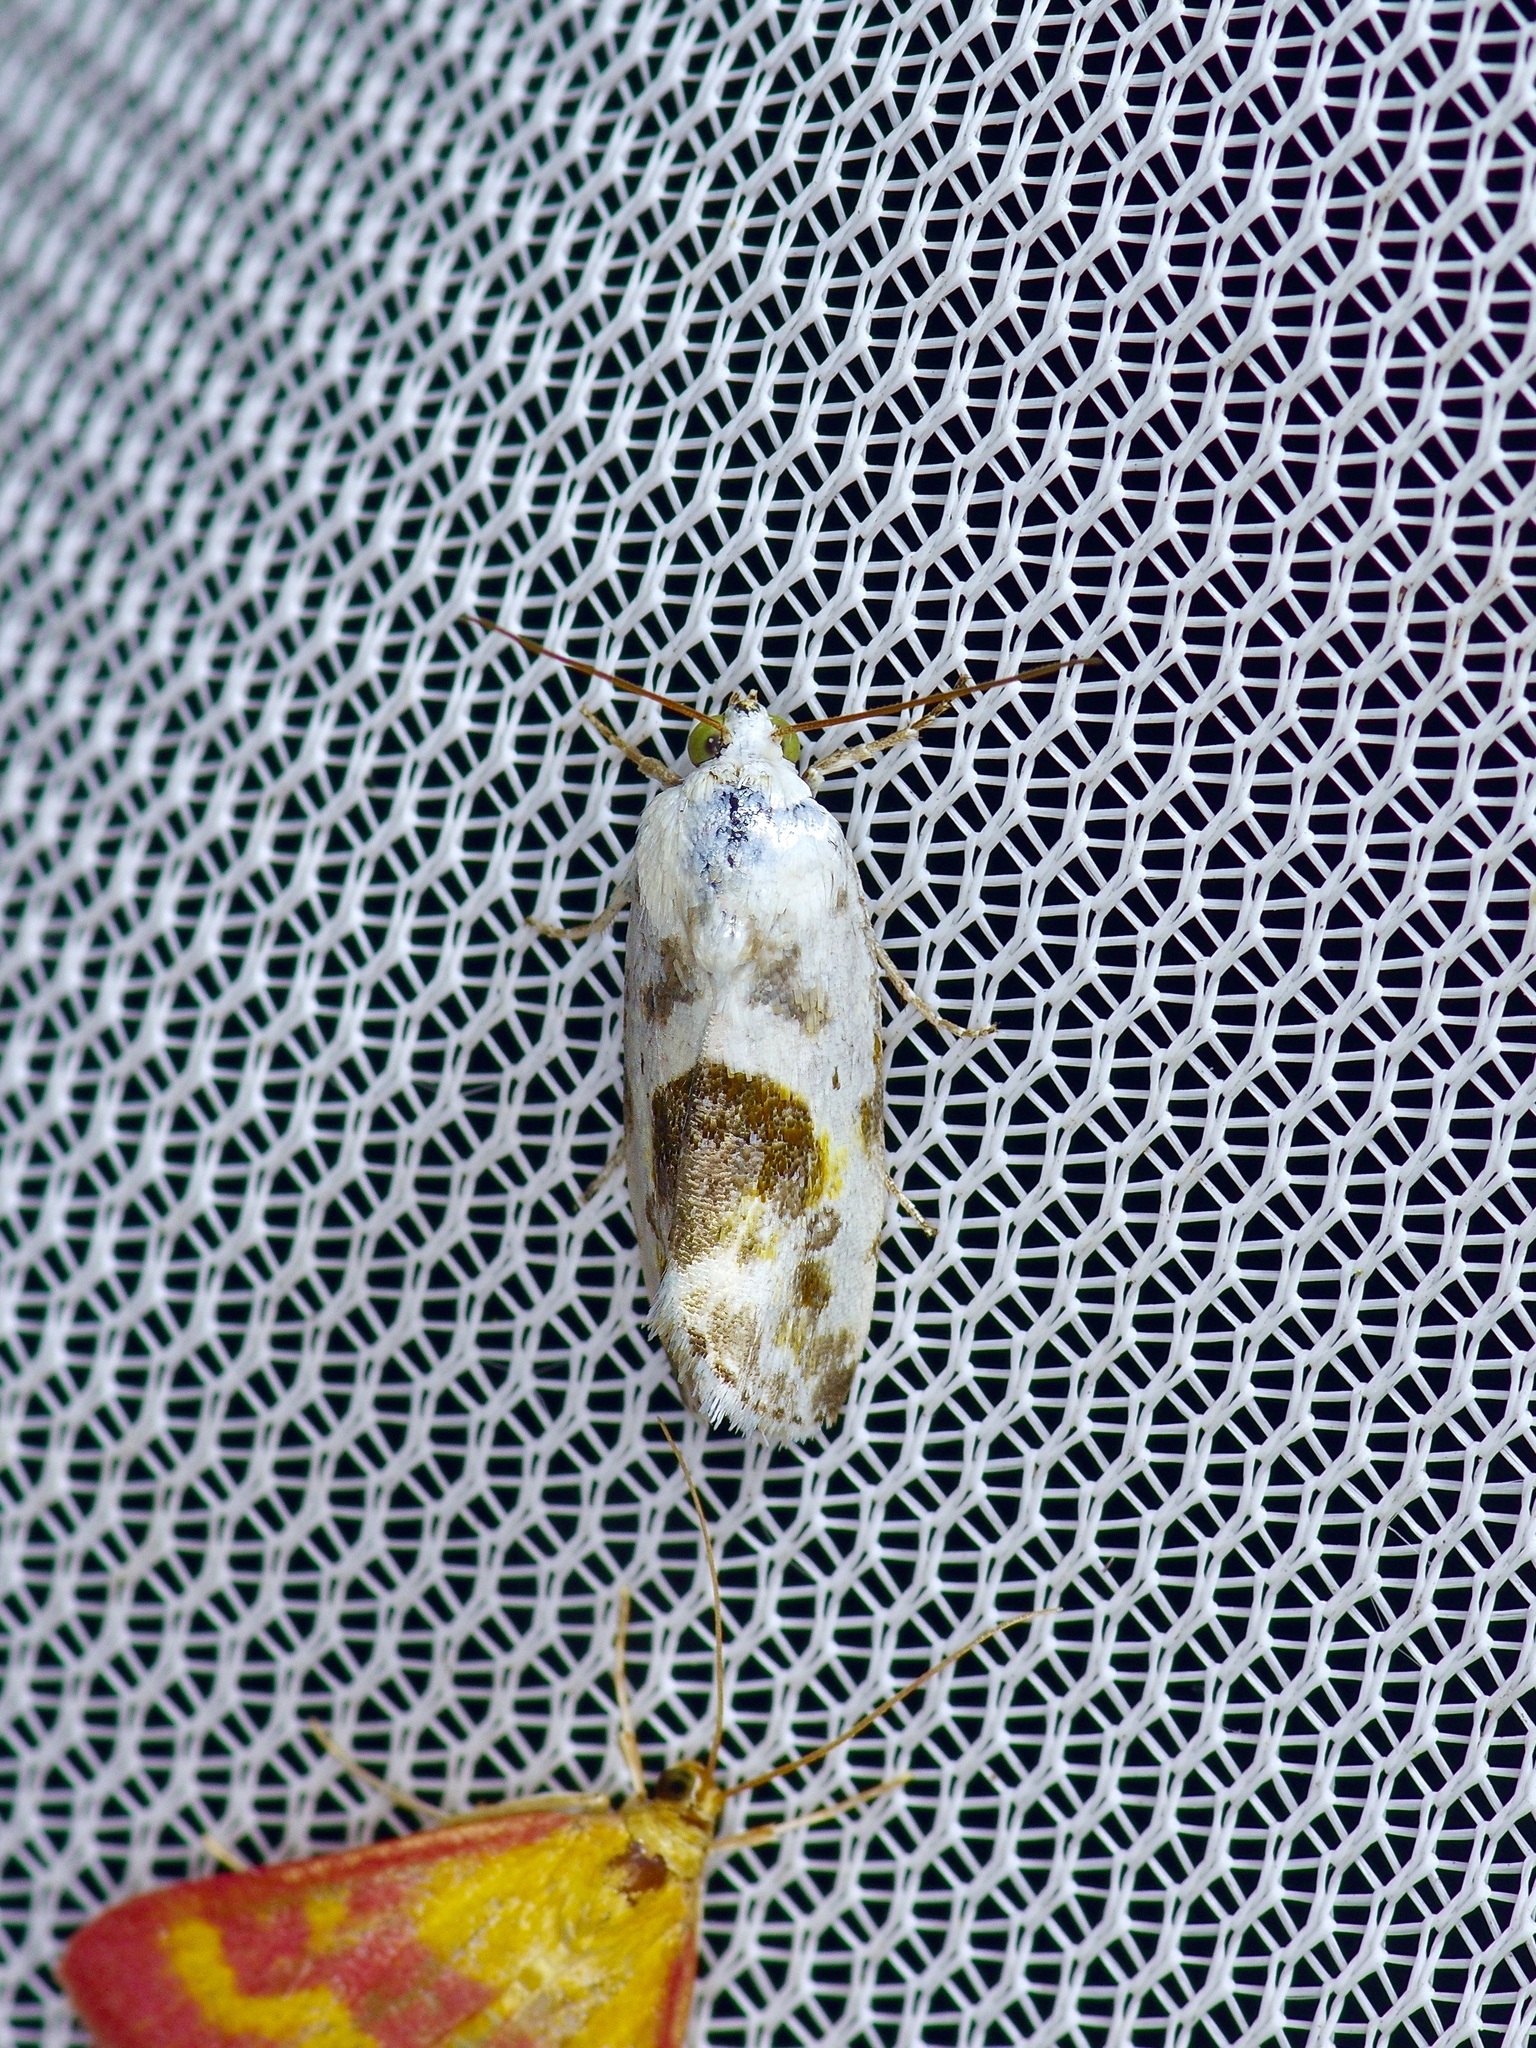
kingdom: Animalia
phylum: Arthropoda
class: Insecta
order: Lepidoptera
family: Noctuidae
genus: Acontia
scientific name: Acontia candefacta
